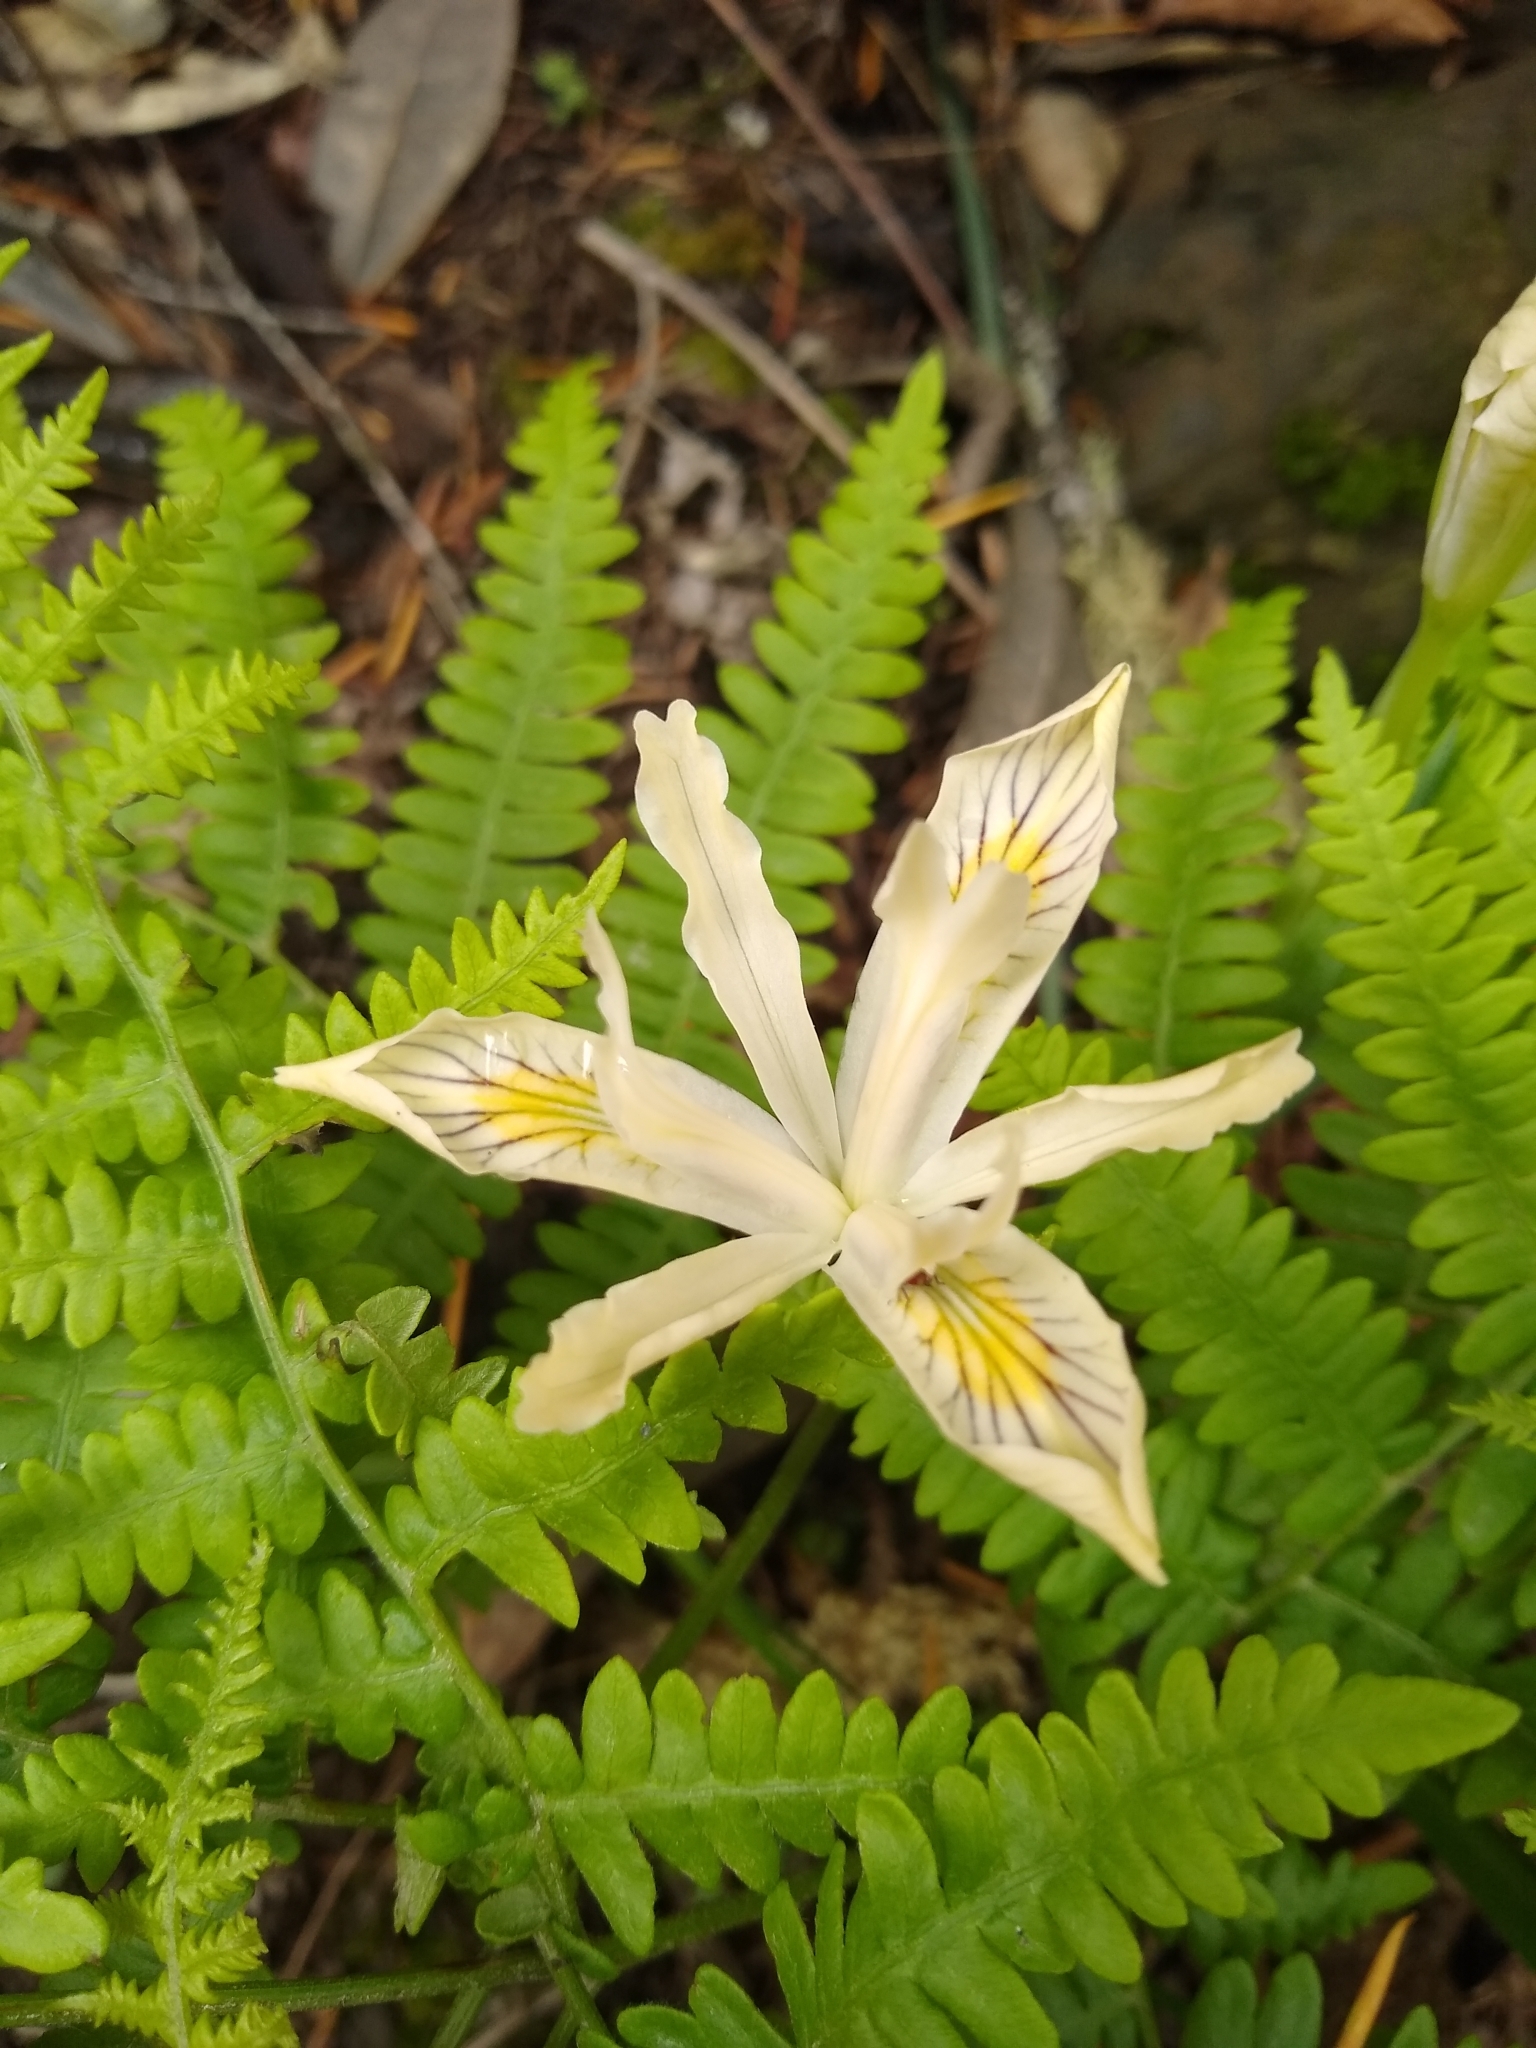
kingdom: Plantae
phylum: Tracheophyta
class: Liliopsida
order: Asparagales
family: Iridaceae
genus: Iris
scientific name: Iris chrysophylla
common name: Yellow-leaf iris
